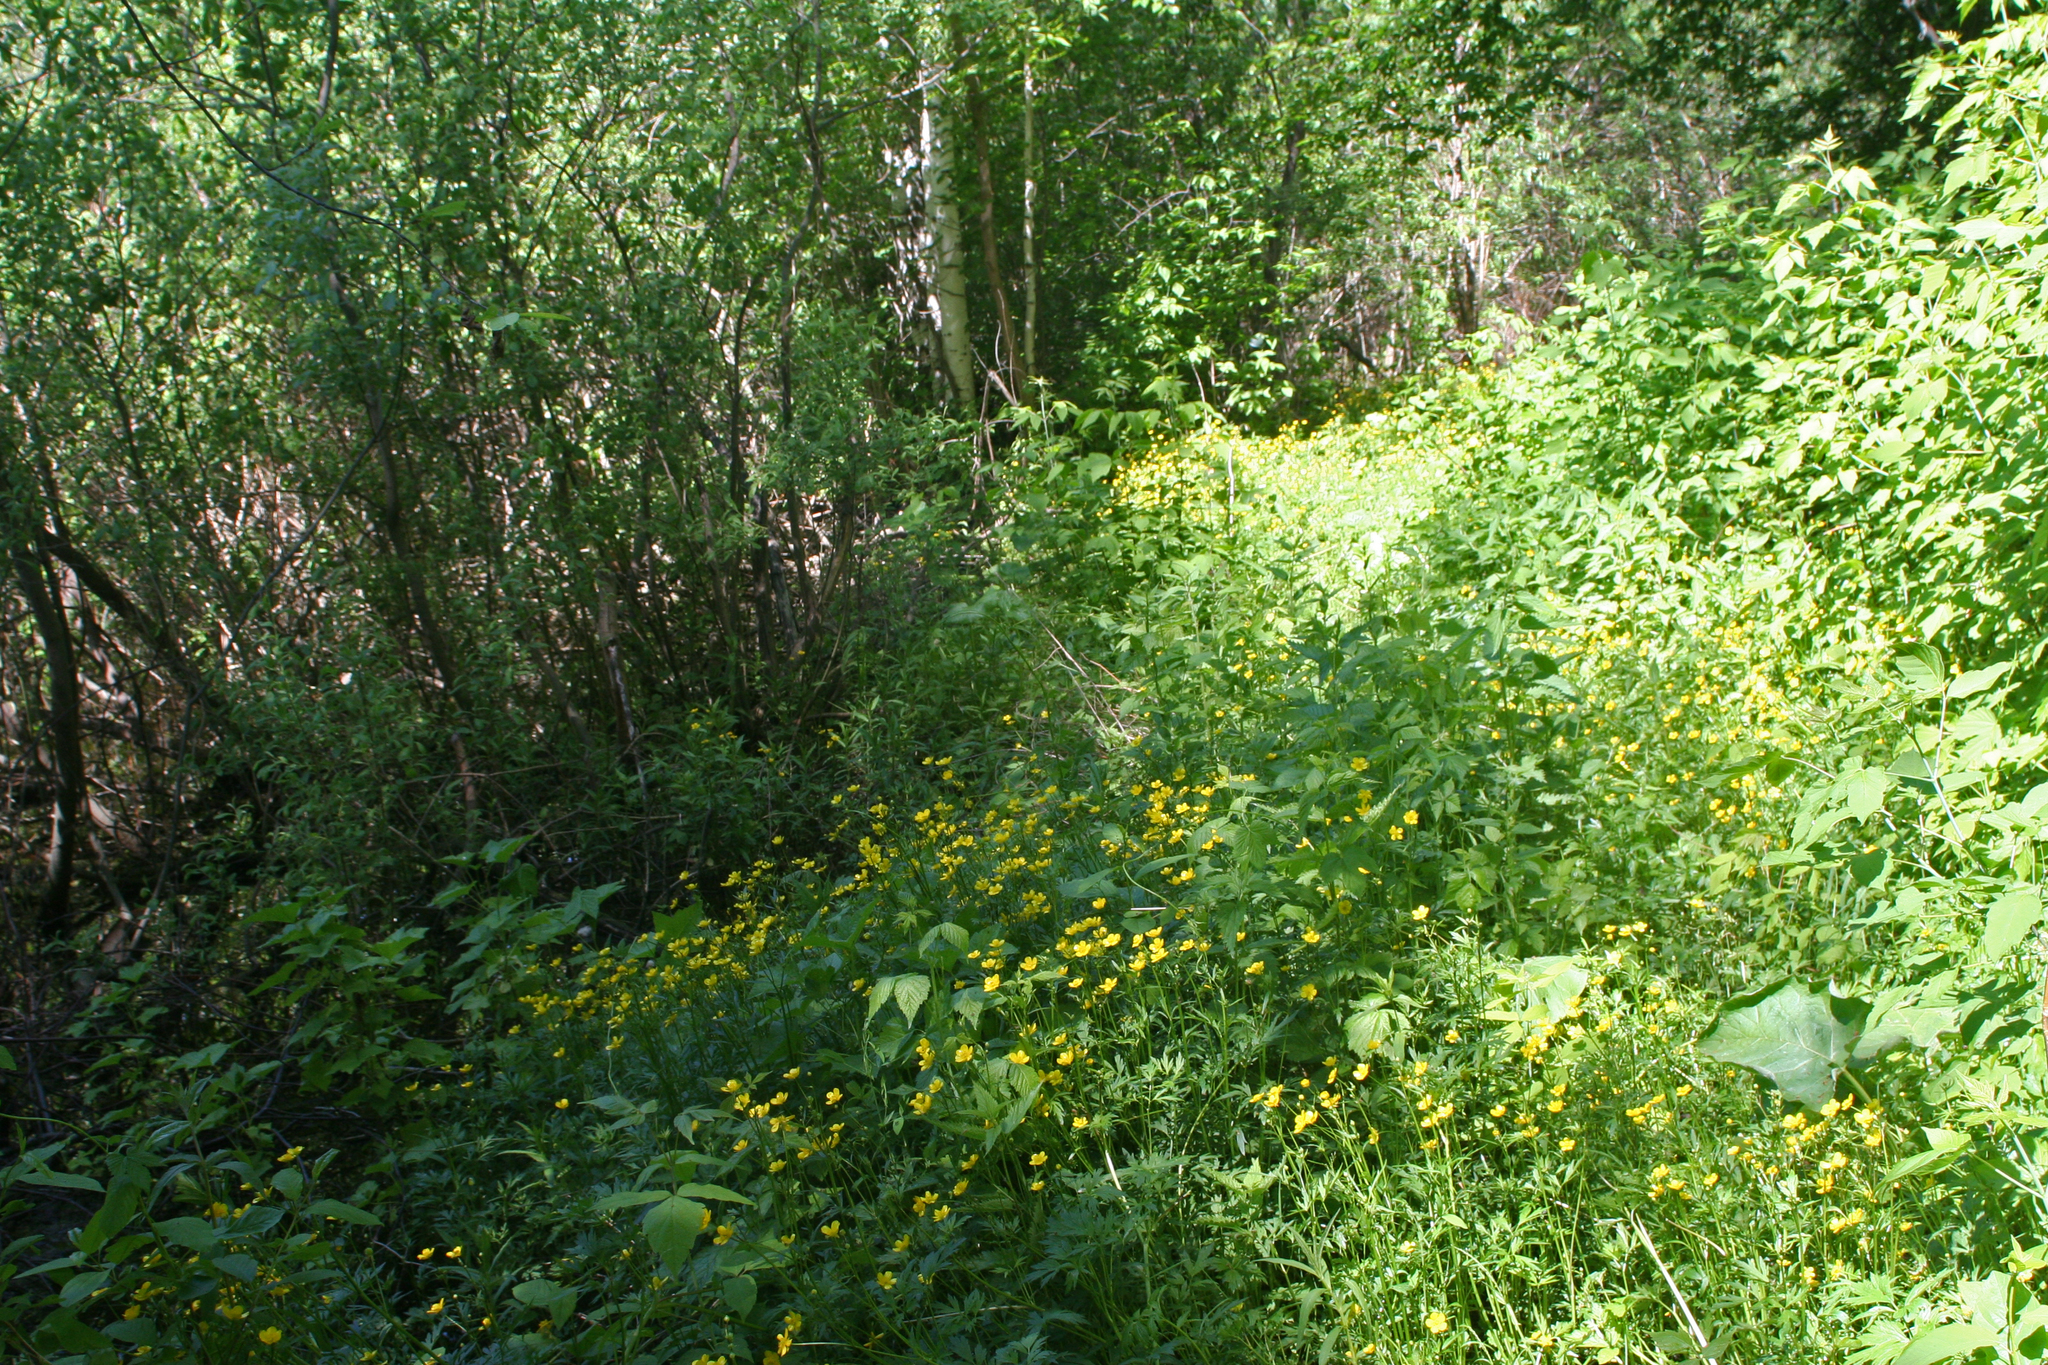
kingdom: Plantae
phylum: Tracheophyta
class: Magnoliopsida
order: Ranunculales
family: Ranunculaceae
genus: Ranunculus
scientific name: Ranunculus repens
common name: Creeping buttercup
